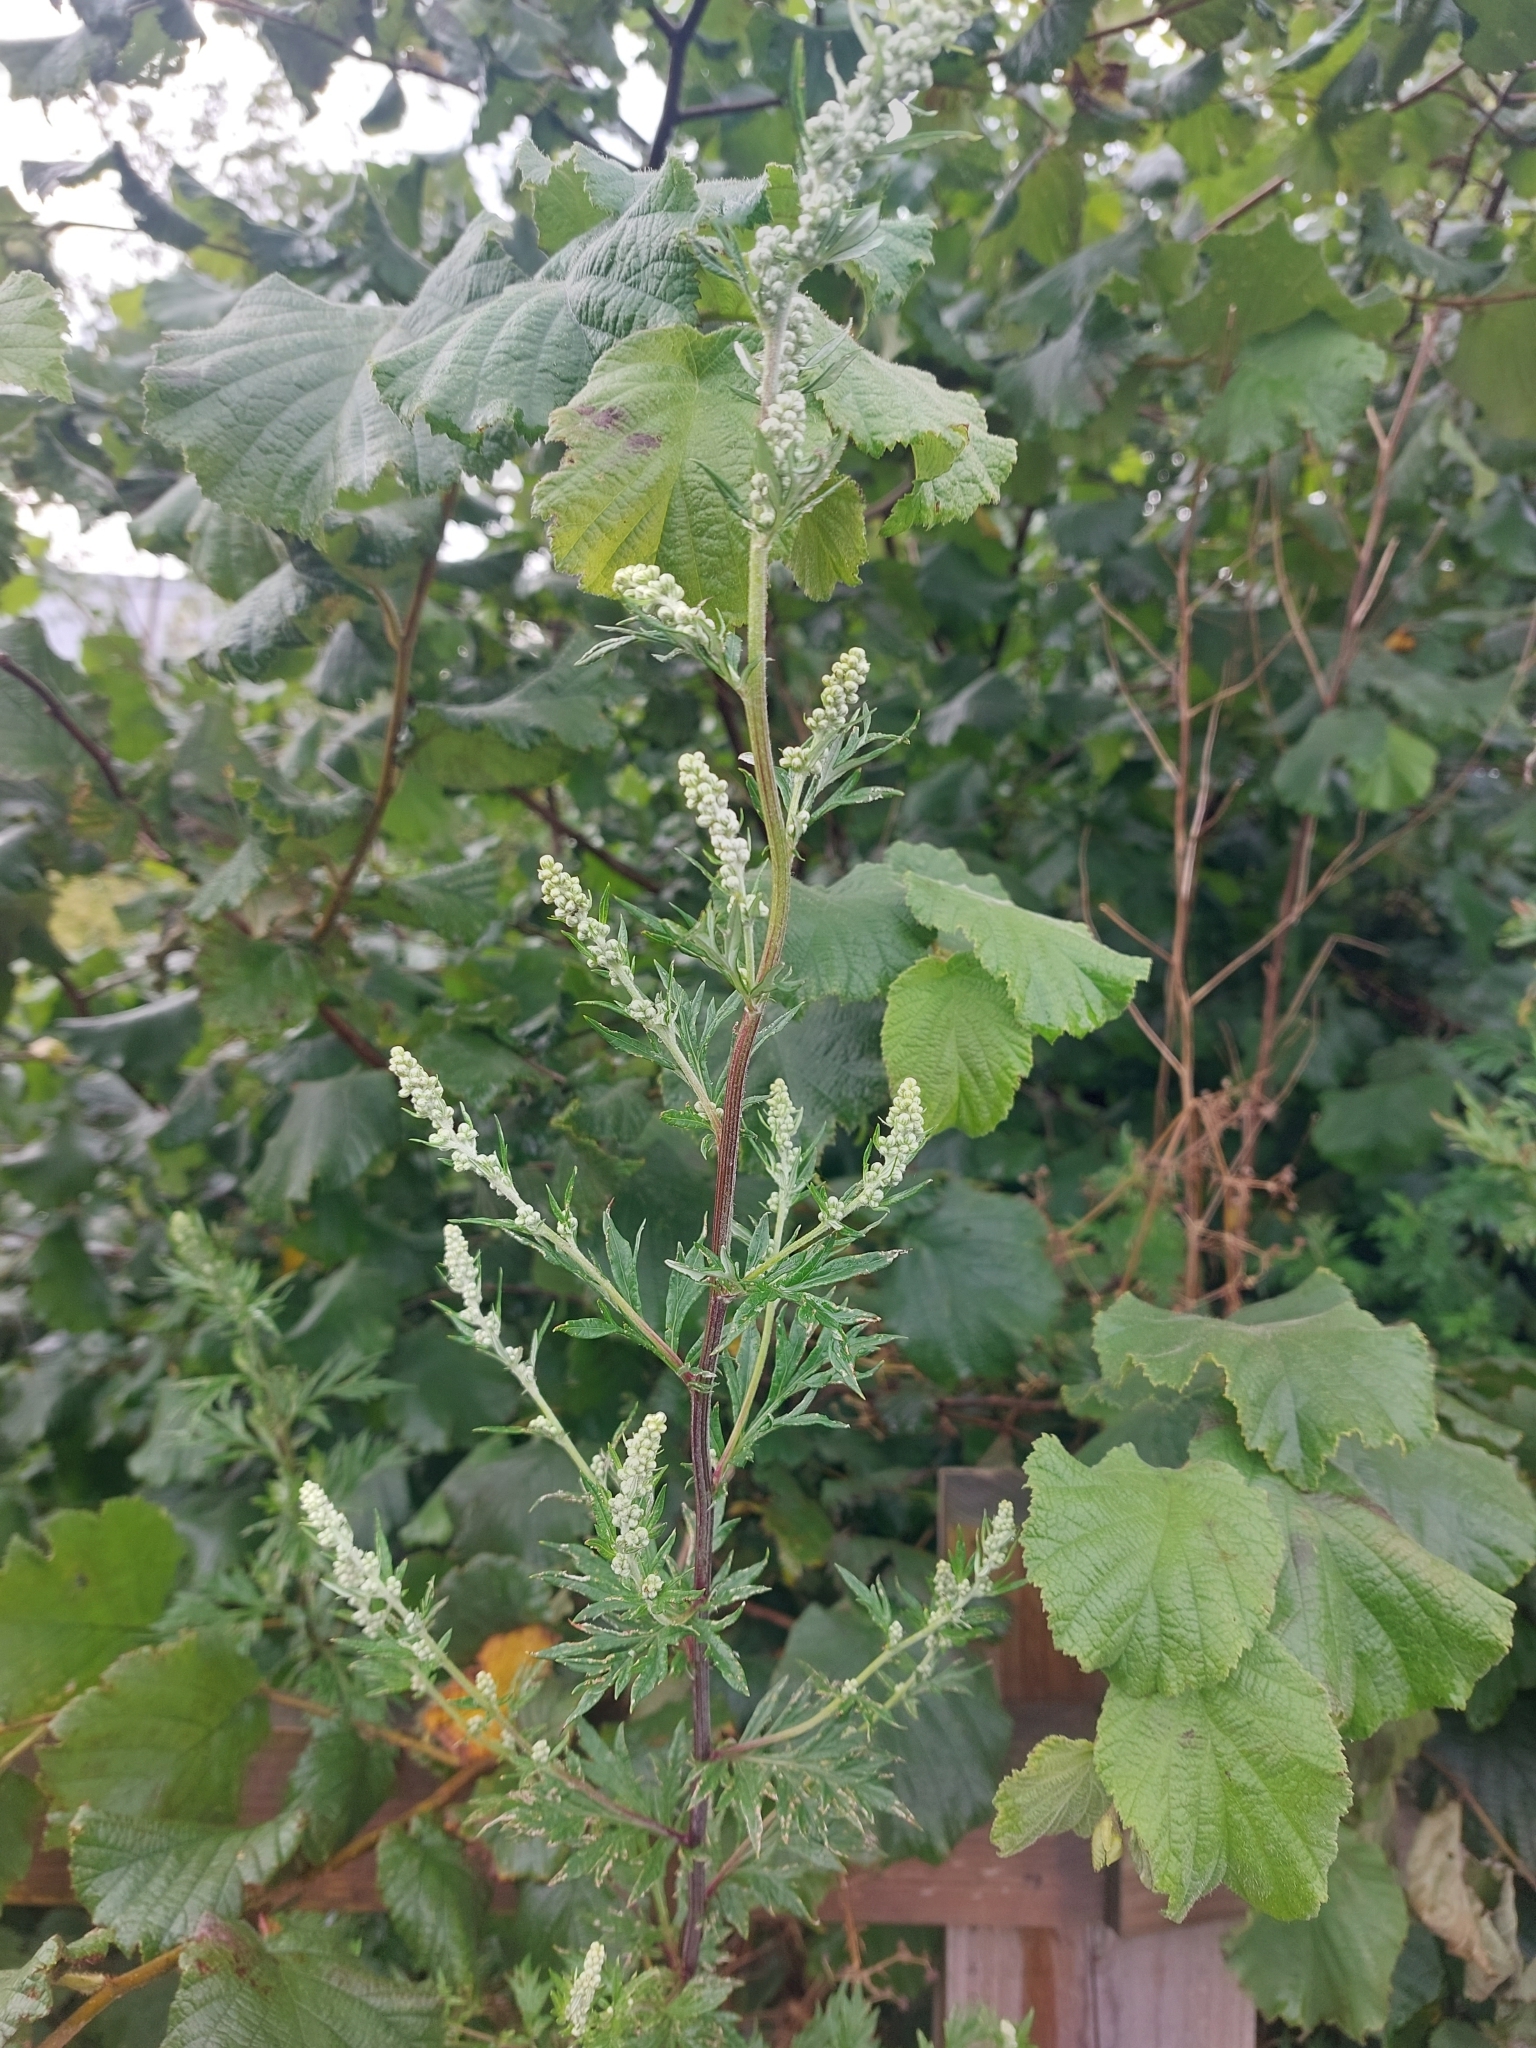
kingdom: Plantae
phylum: Tracheophyta
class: Magnoliopsida
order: Asterales
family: Asteraceae
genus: Artemisia
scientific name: Artemisia vulgaris
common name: Mugwort
